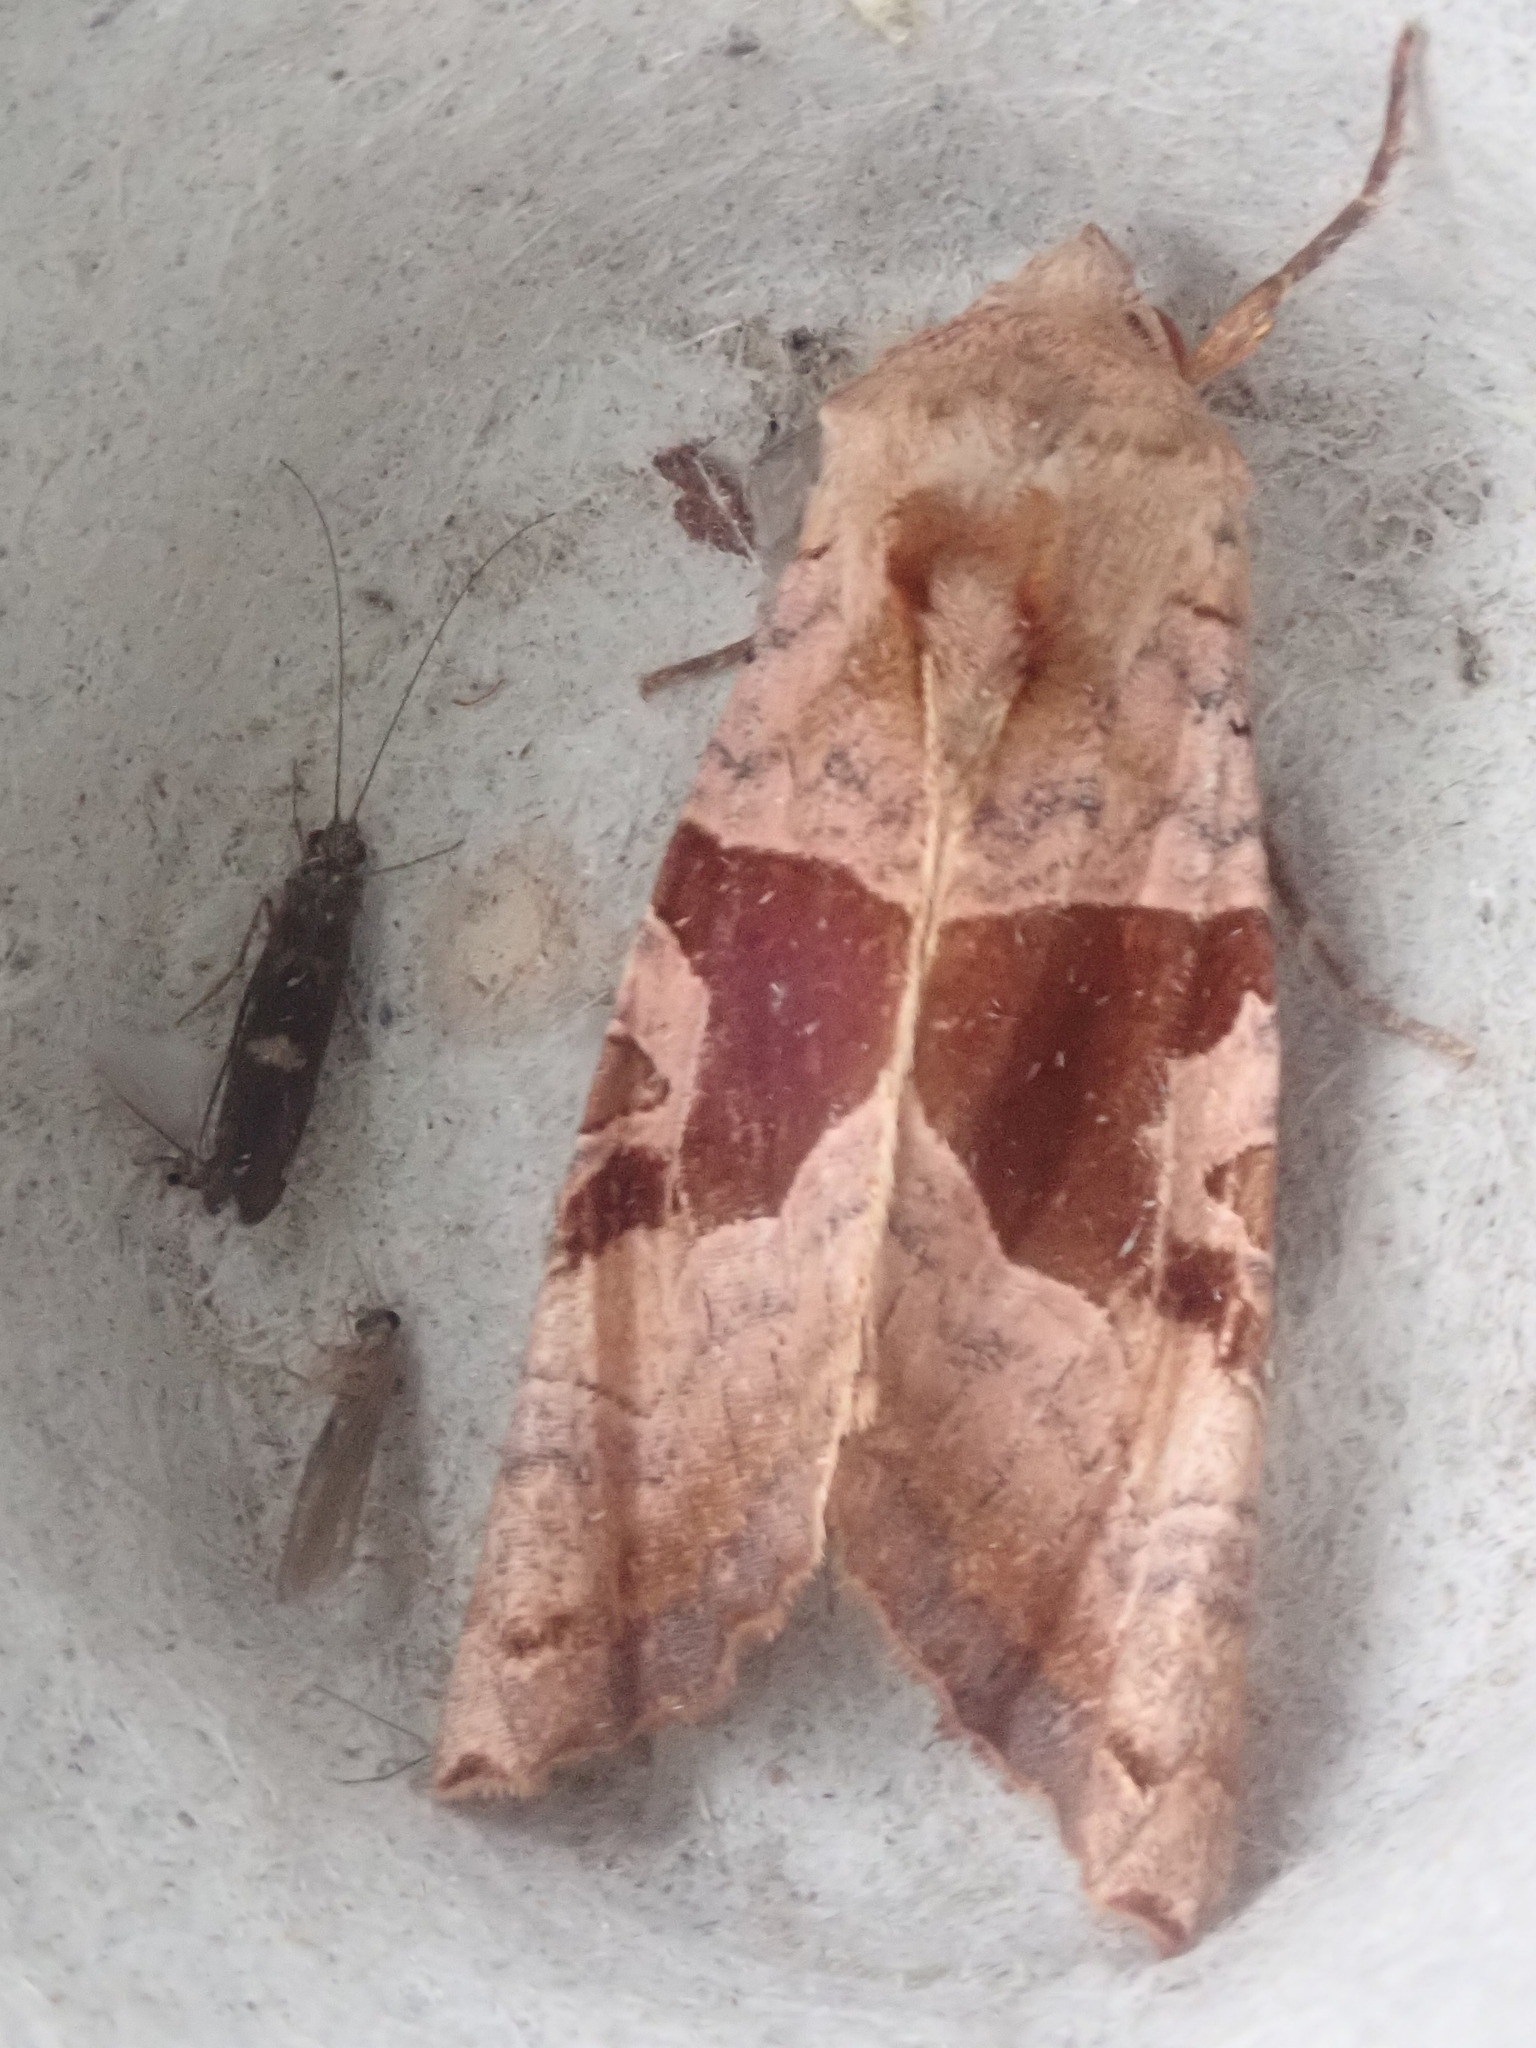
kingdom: Animalia
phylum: Arthropoda
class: Insecta
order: Lepidoptera
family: Noctuidae
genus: Phlogophora
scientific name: Phlogophora periculosa
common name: Brown angle shades
